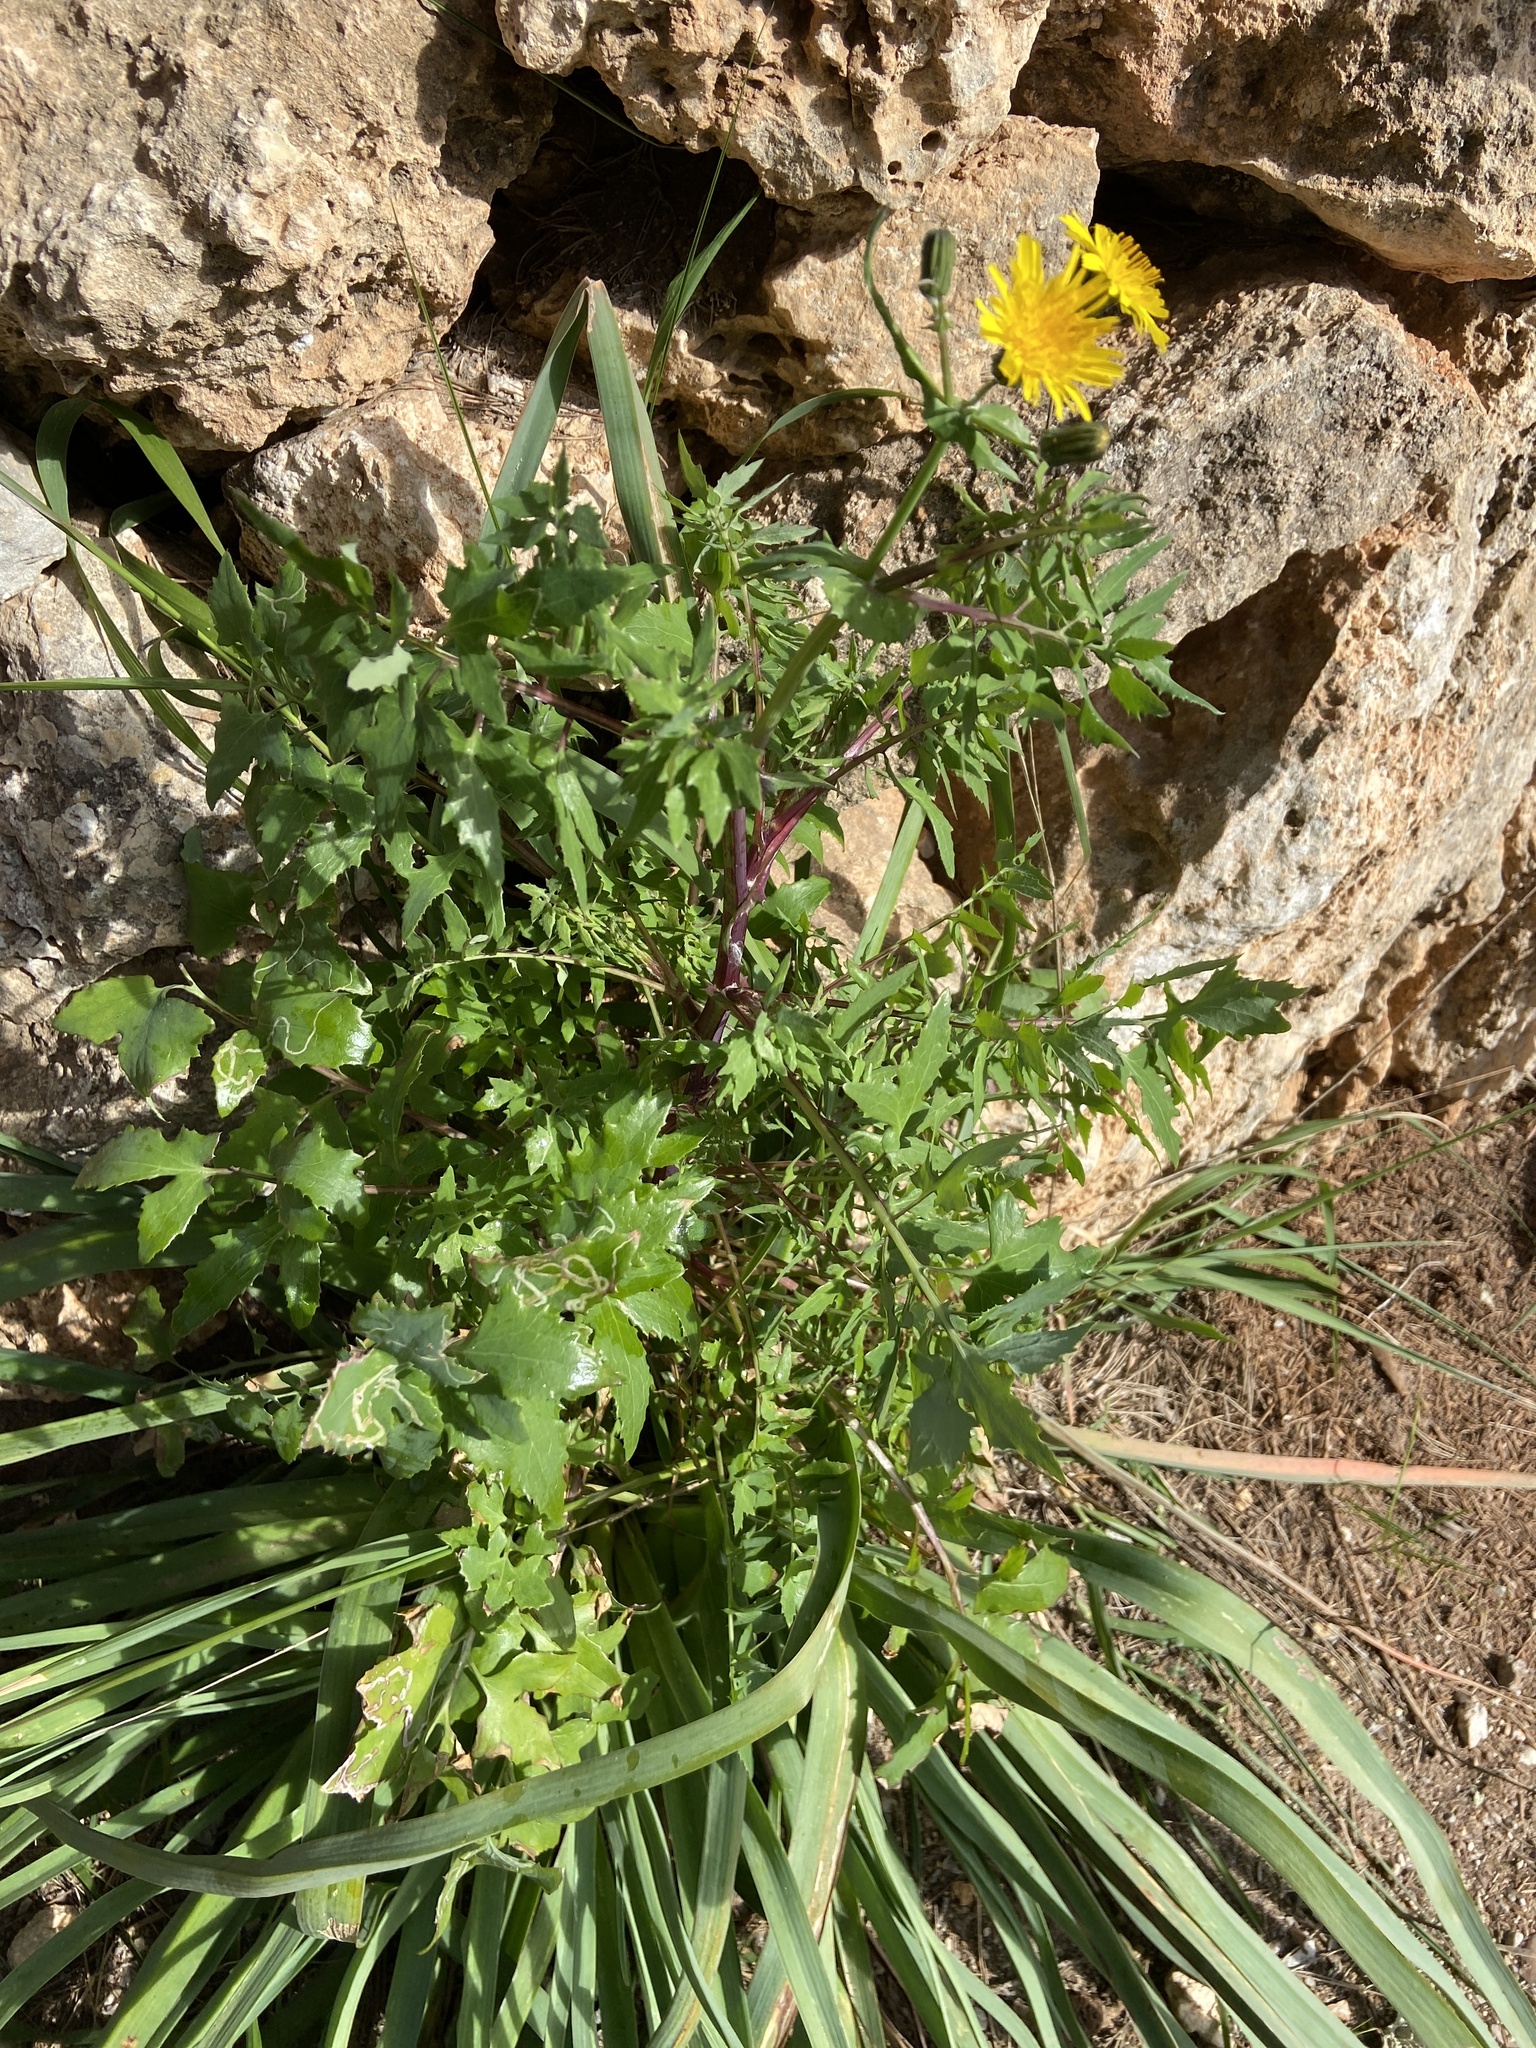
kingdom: Plantae
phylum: Tracheophyta
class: Magnoliopsida
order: Asterales
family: Asteraceae
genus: Sonchus
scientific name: Sonchus tenerrimus
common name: Clammy sowthistle
